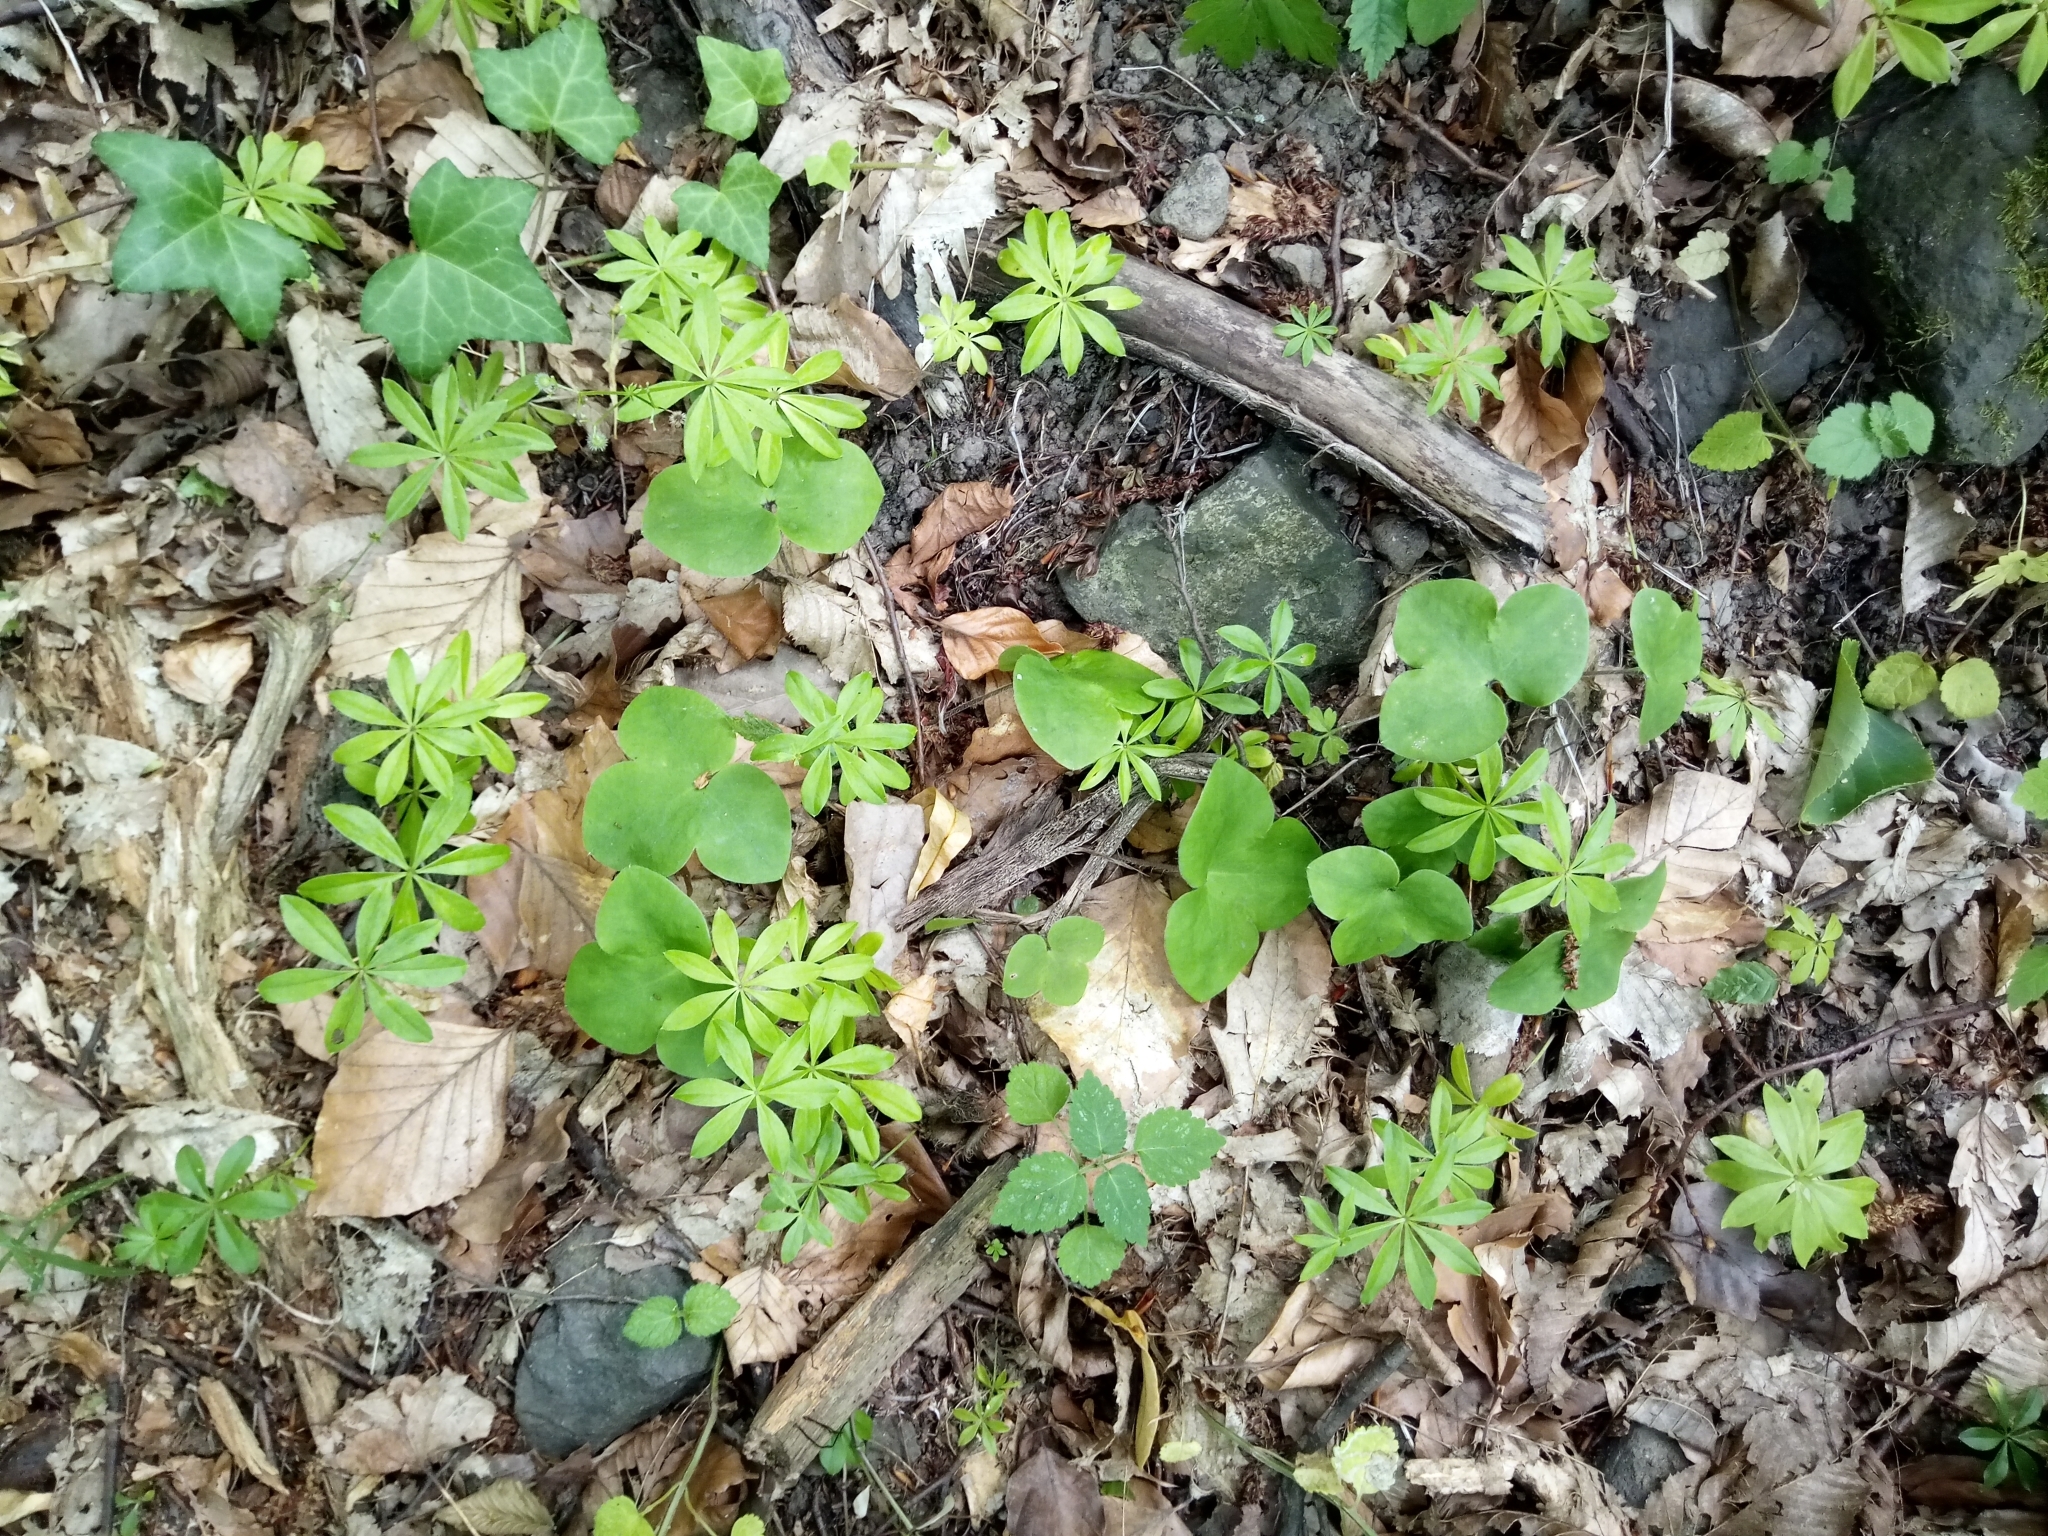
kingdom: Plantae
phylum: Tracheophyta
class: Magnoliopsida
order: Ranunculales
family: Ranunculaceae
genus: Hepatica
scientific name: Hepatica nobilis
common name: Liverleaf
